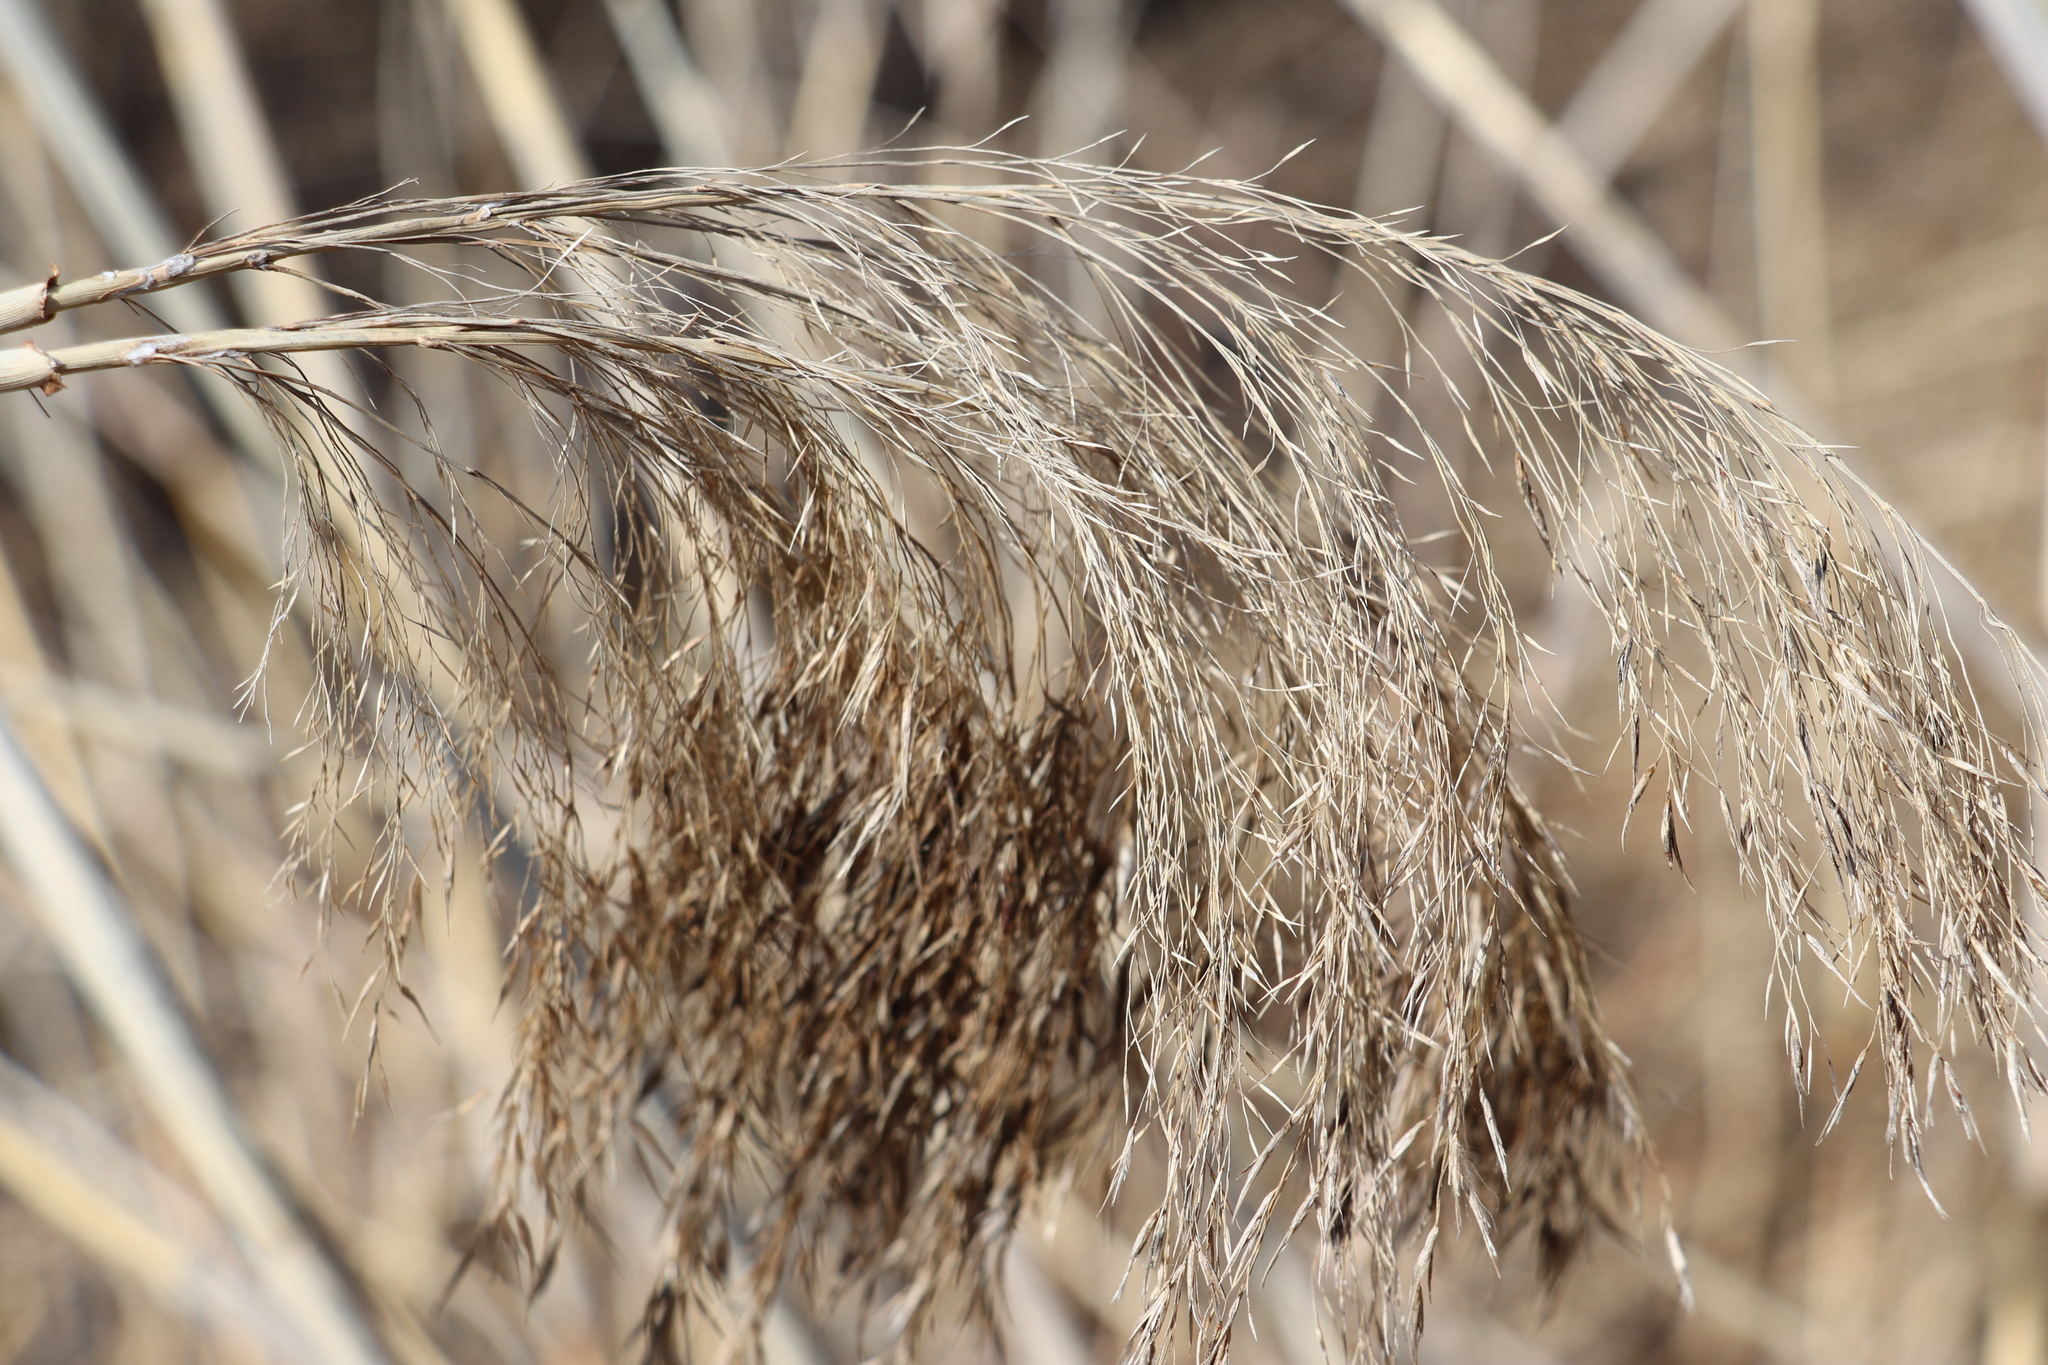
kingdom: Plantae
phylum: Tracheophyta
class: Liliopsida
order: Poales
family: Poaceae
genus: Phragmites
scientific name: Phragmites australis
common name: Common reed
